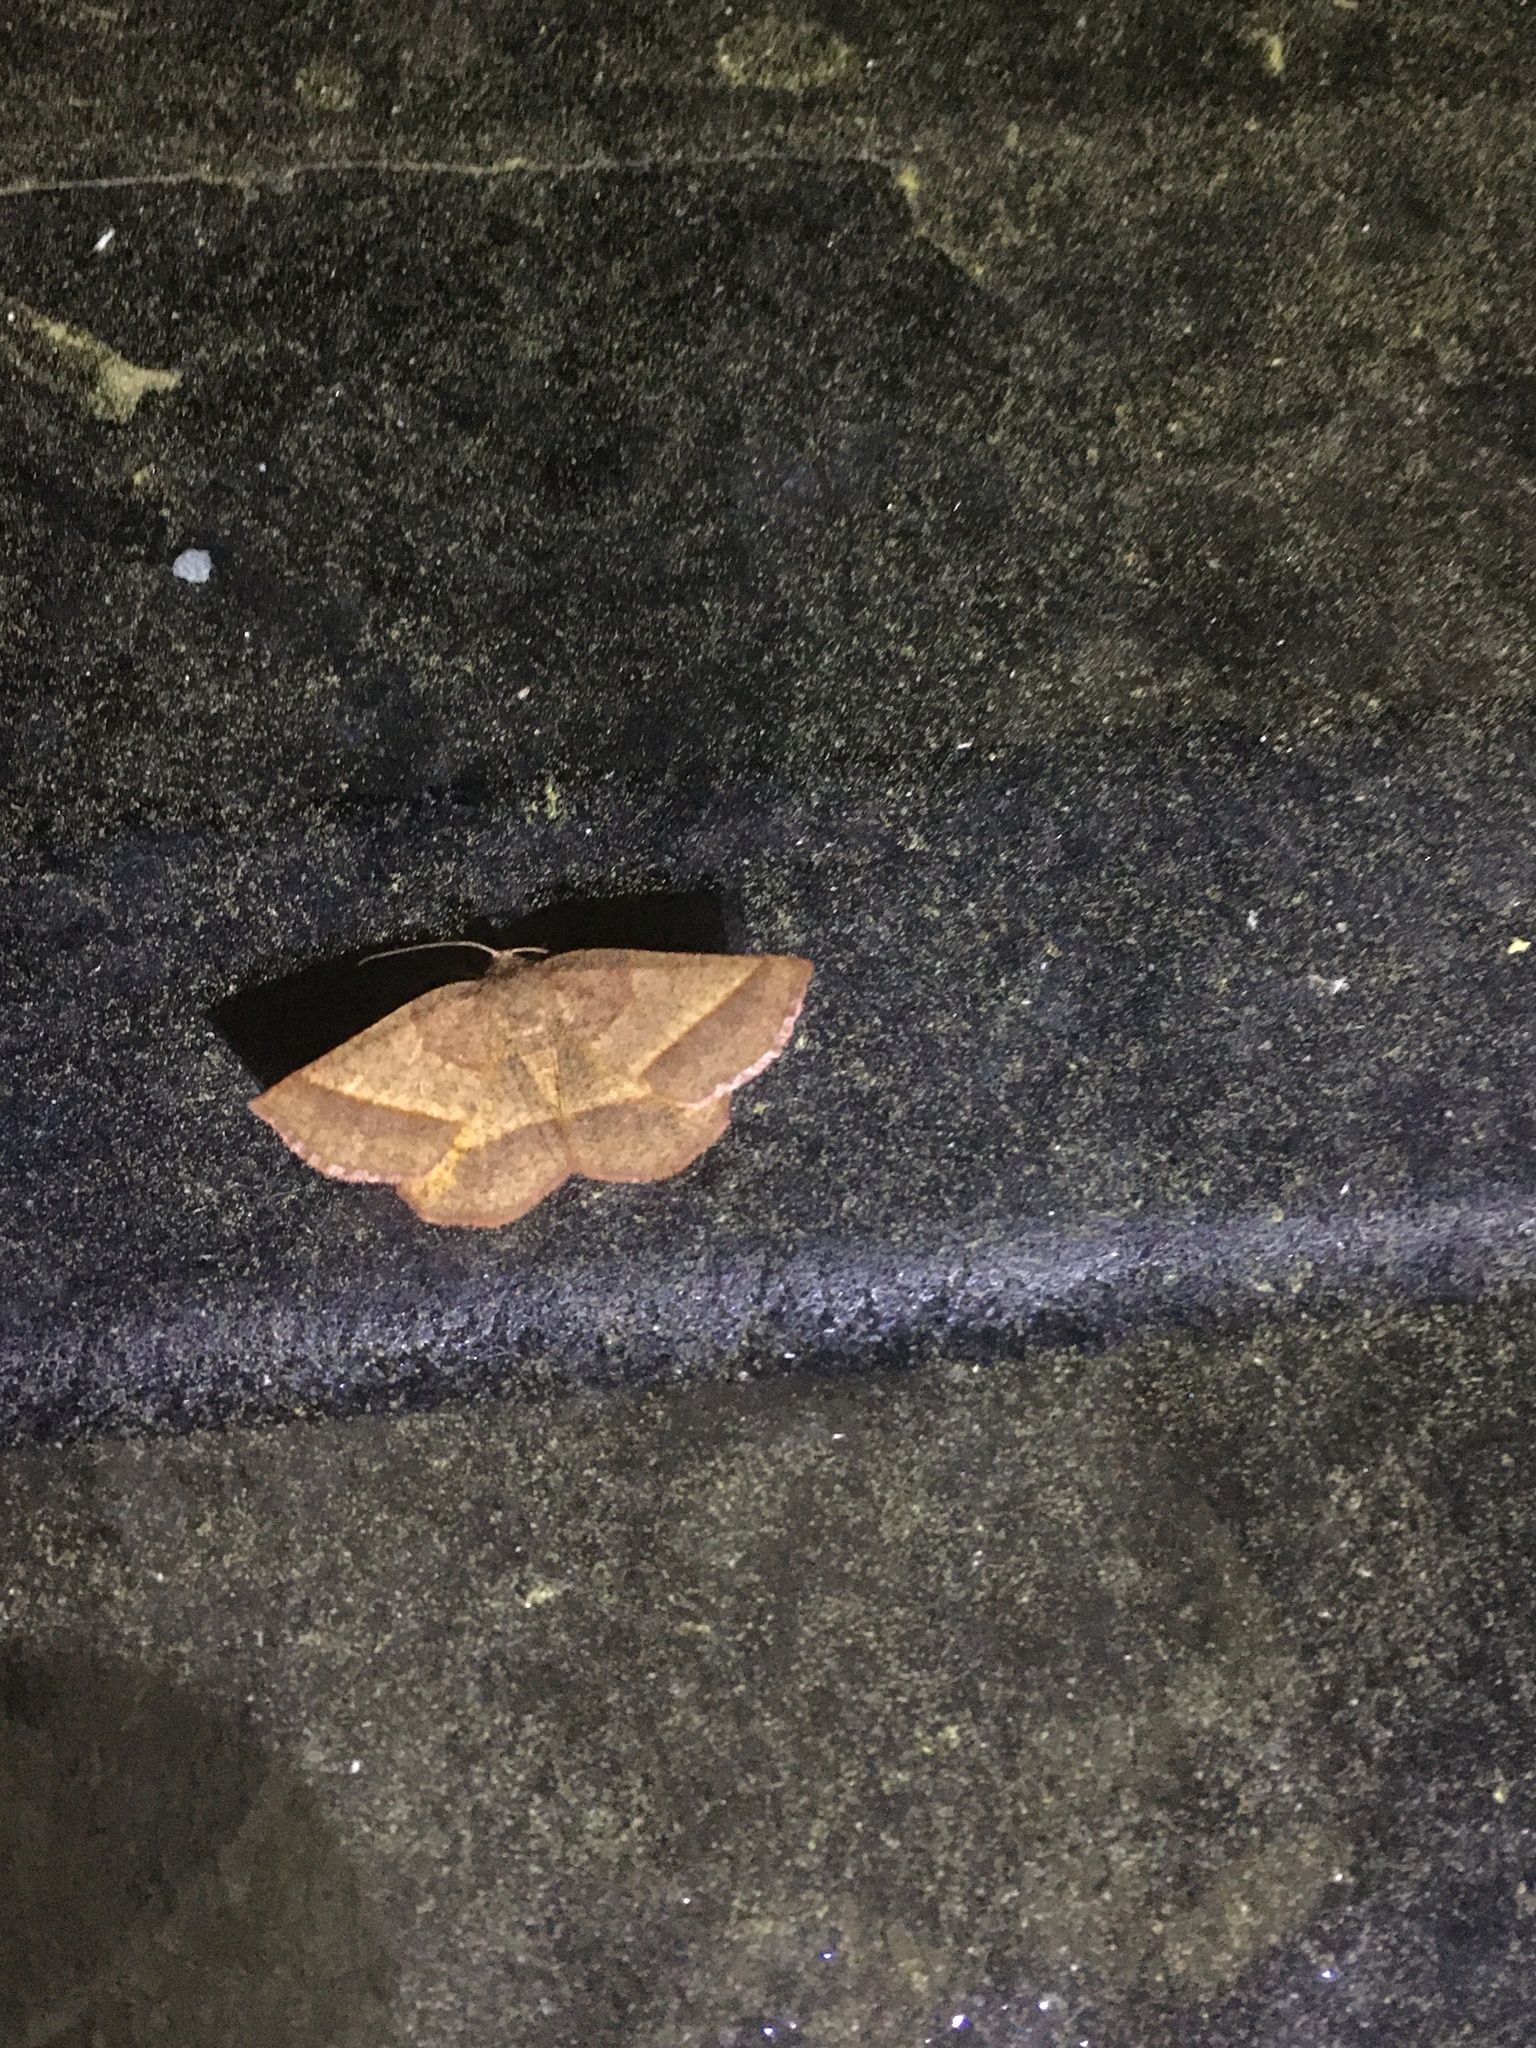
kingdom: Animalia
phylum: Arthropoda
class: Insecta
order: Lepidoptera
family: Geometridae
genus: Metarranthis
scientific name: Metarranthis obfirmaria
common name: Yellow-washed metarranthis
